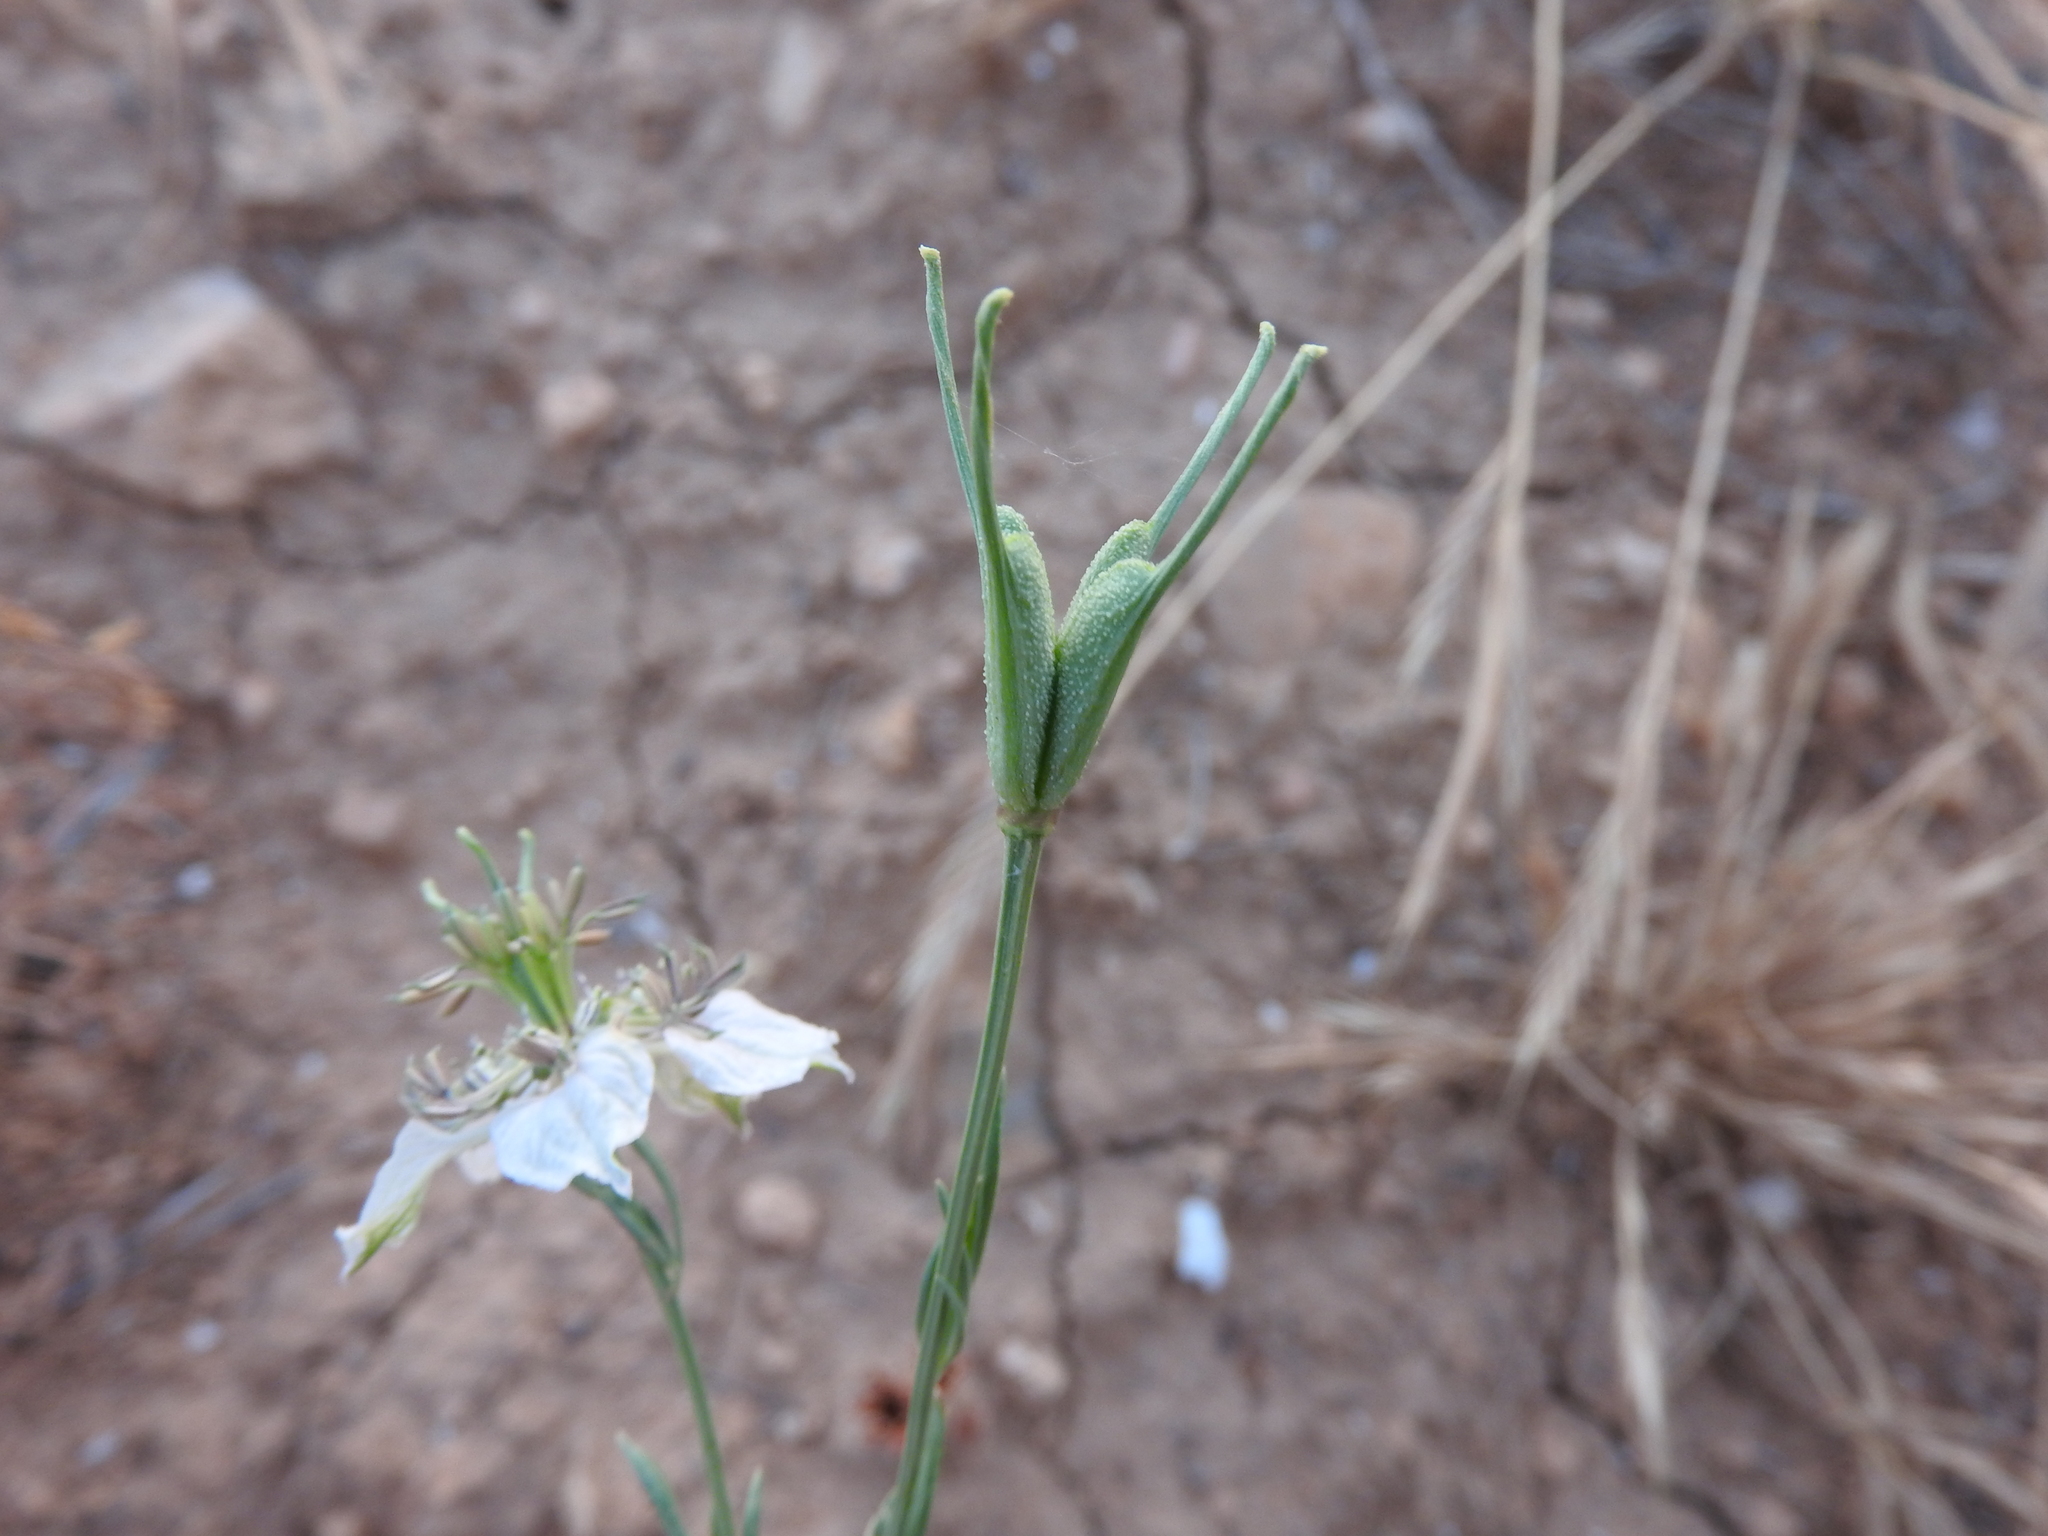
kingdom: Plantae
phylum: Tracheophyta
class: Magnoliopsida
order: Ranunculales
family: Ranunculaceae
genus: Nigella
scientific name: Nigella arvensis
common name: Wild fennel-flower
